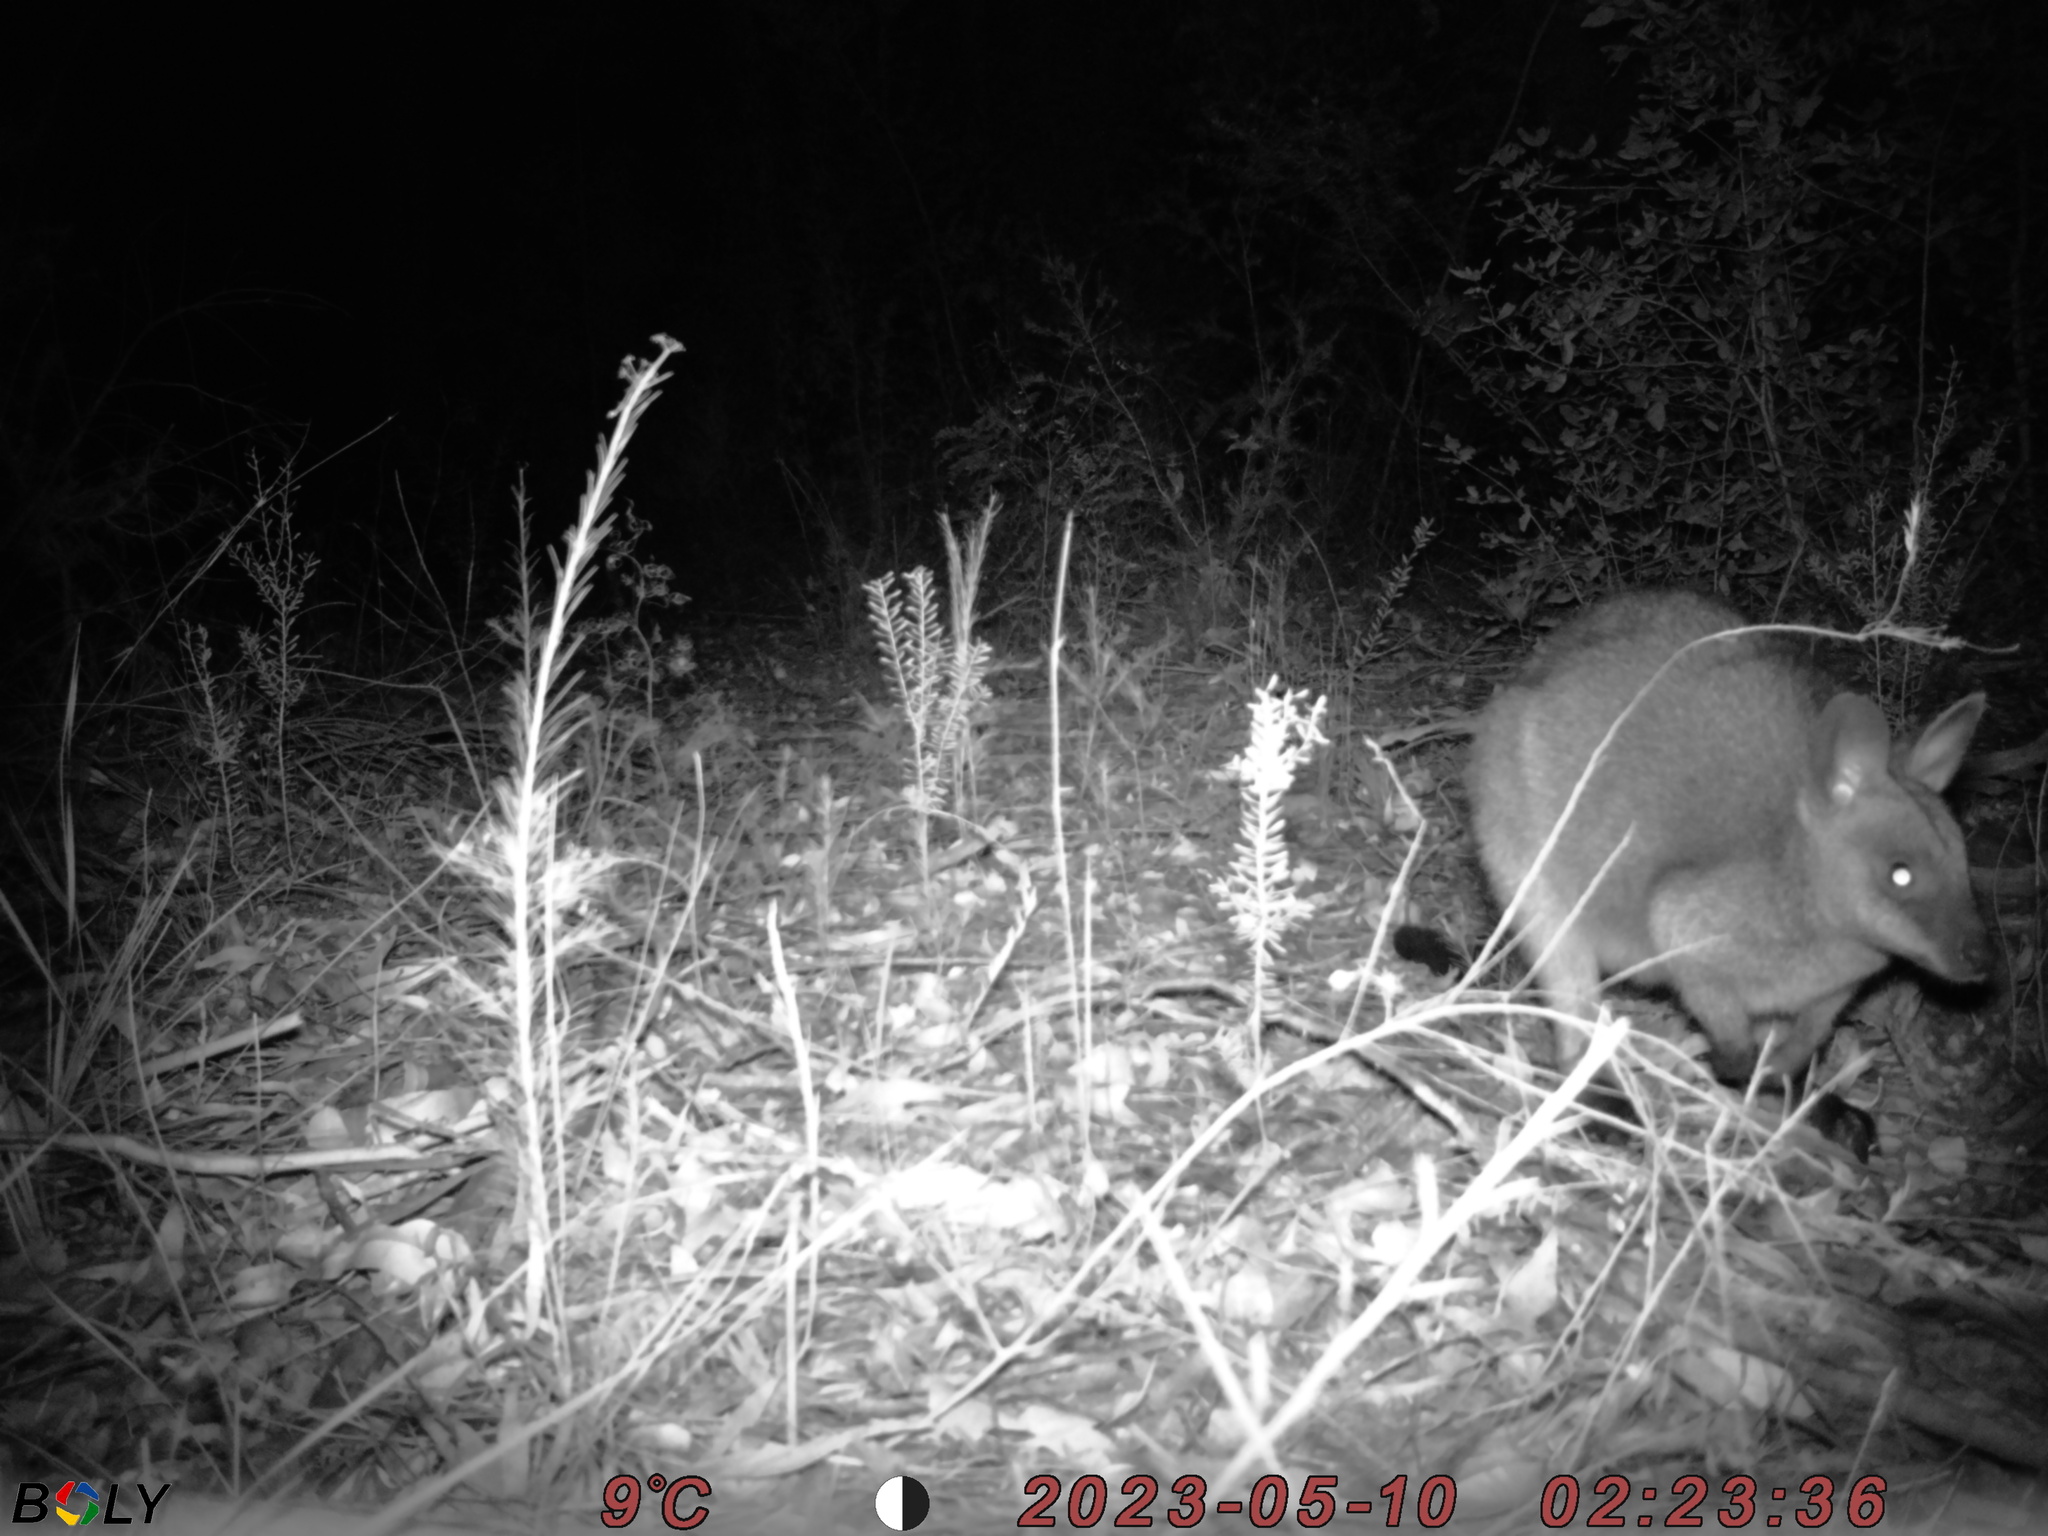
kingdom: Animalia
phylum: Chordata
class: Mammalia
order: Diprotodontia
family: Macropodidae
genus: Wallabia
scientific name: Wallabia bicolor
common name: Swamp wallaby
